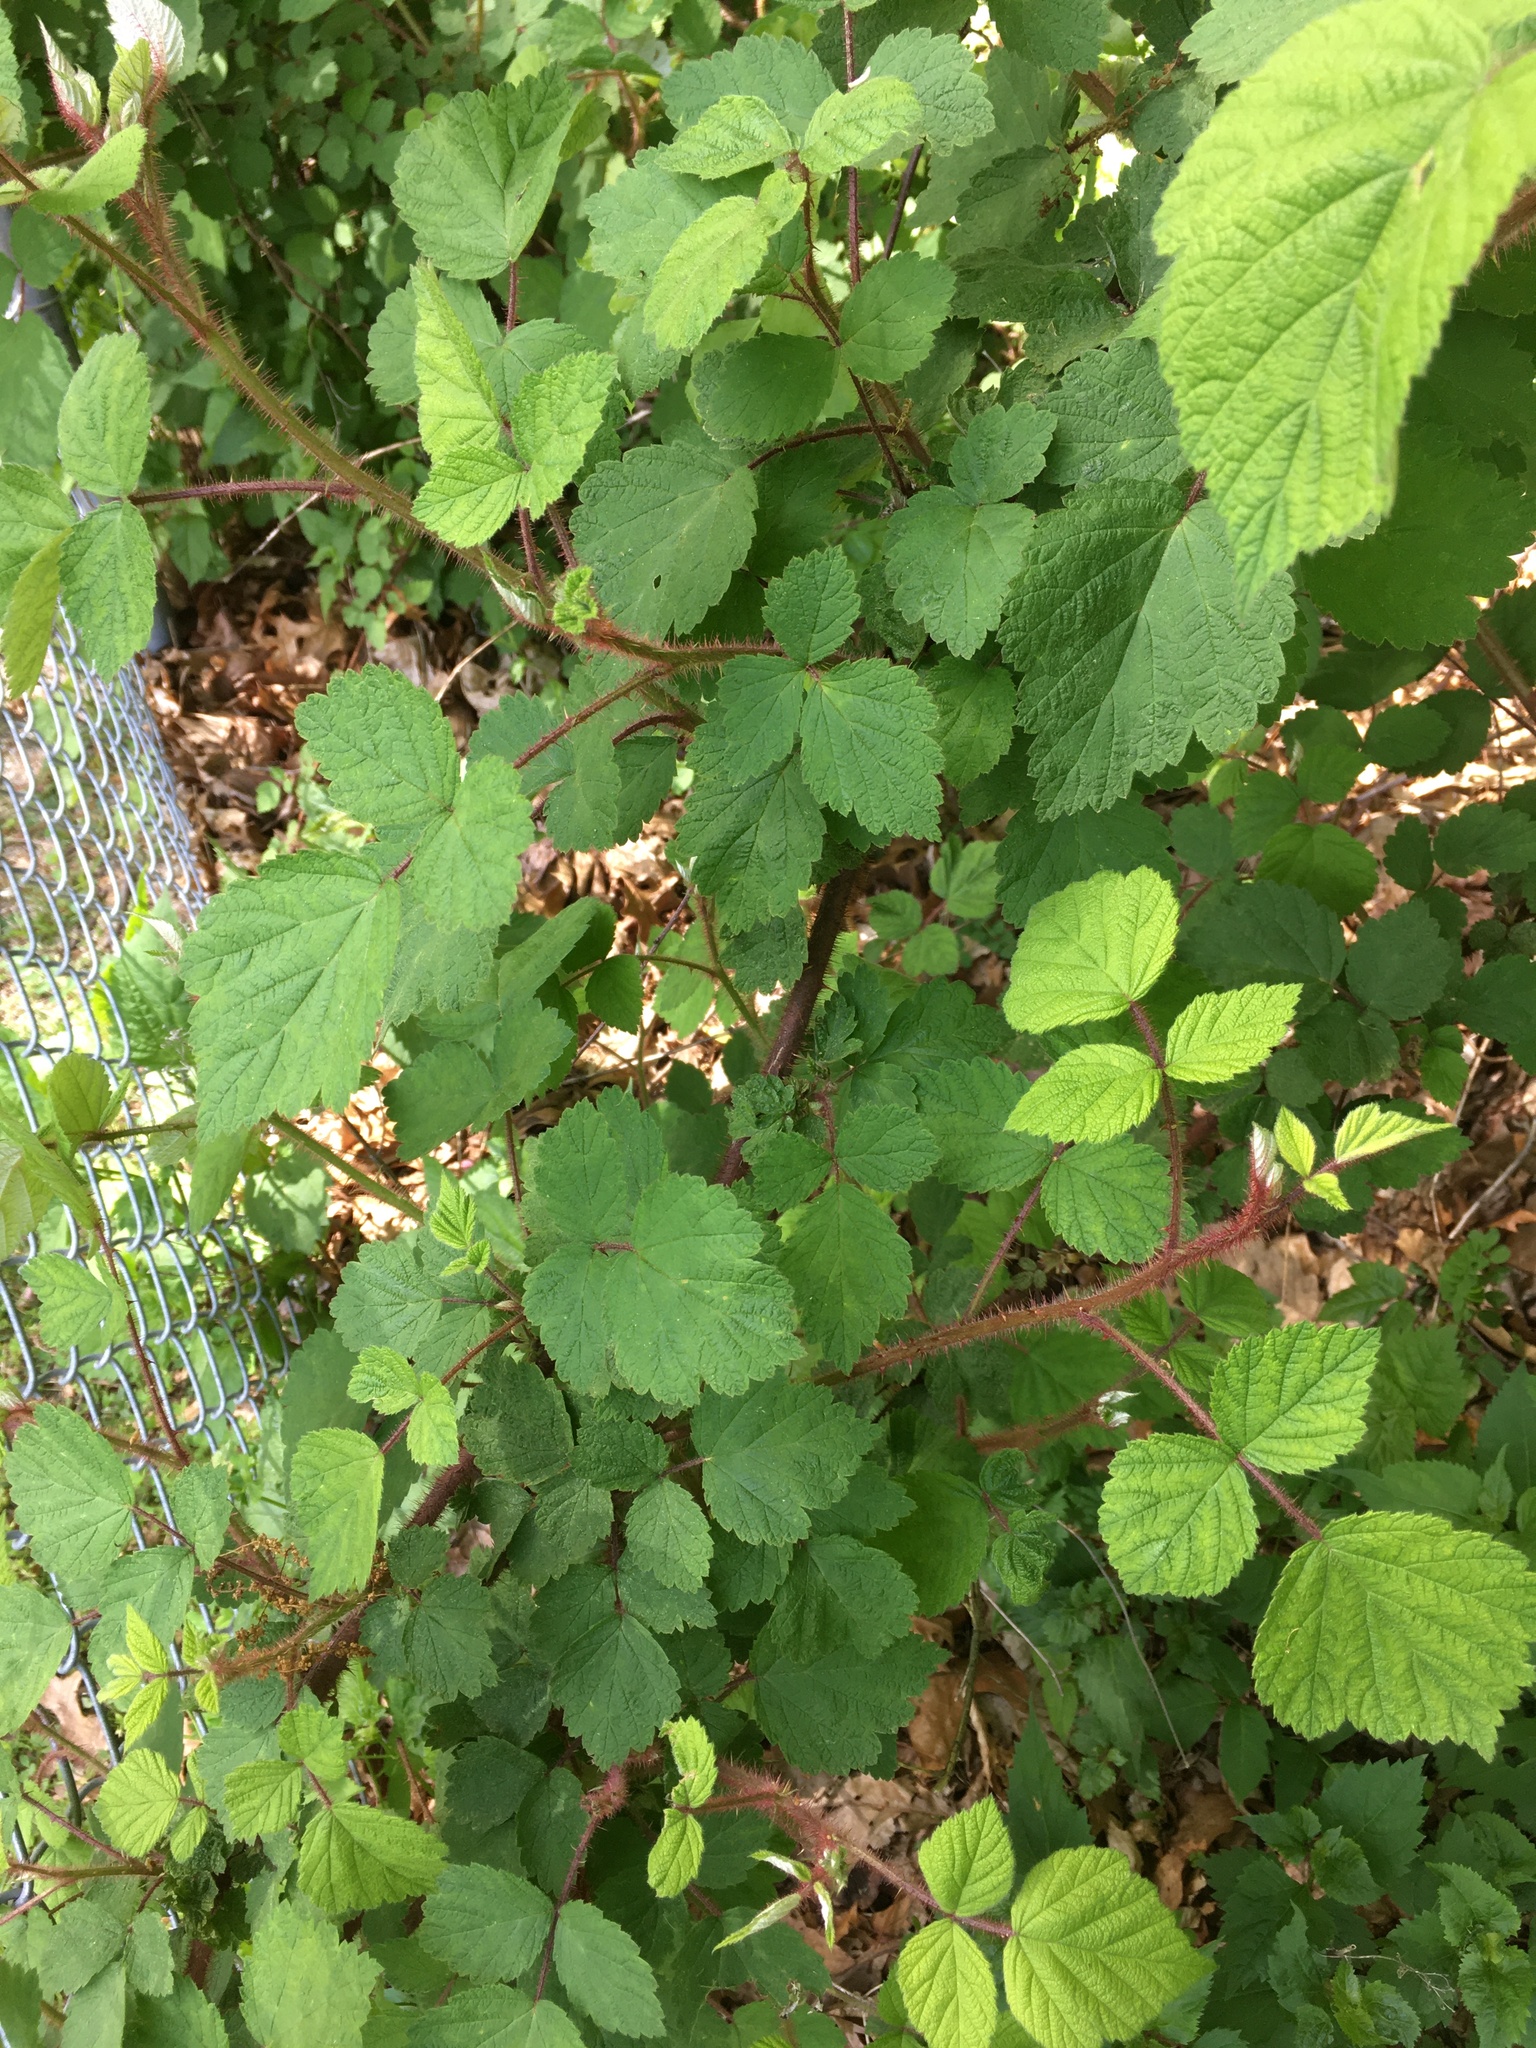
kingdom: Plantae
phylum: Tracheophyta
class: Magnoliopsida
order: Rosales
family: Rosaceae
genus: Rubus
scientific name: Rubus phoenicolasius
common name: Japanese wineberry
